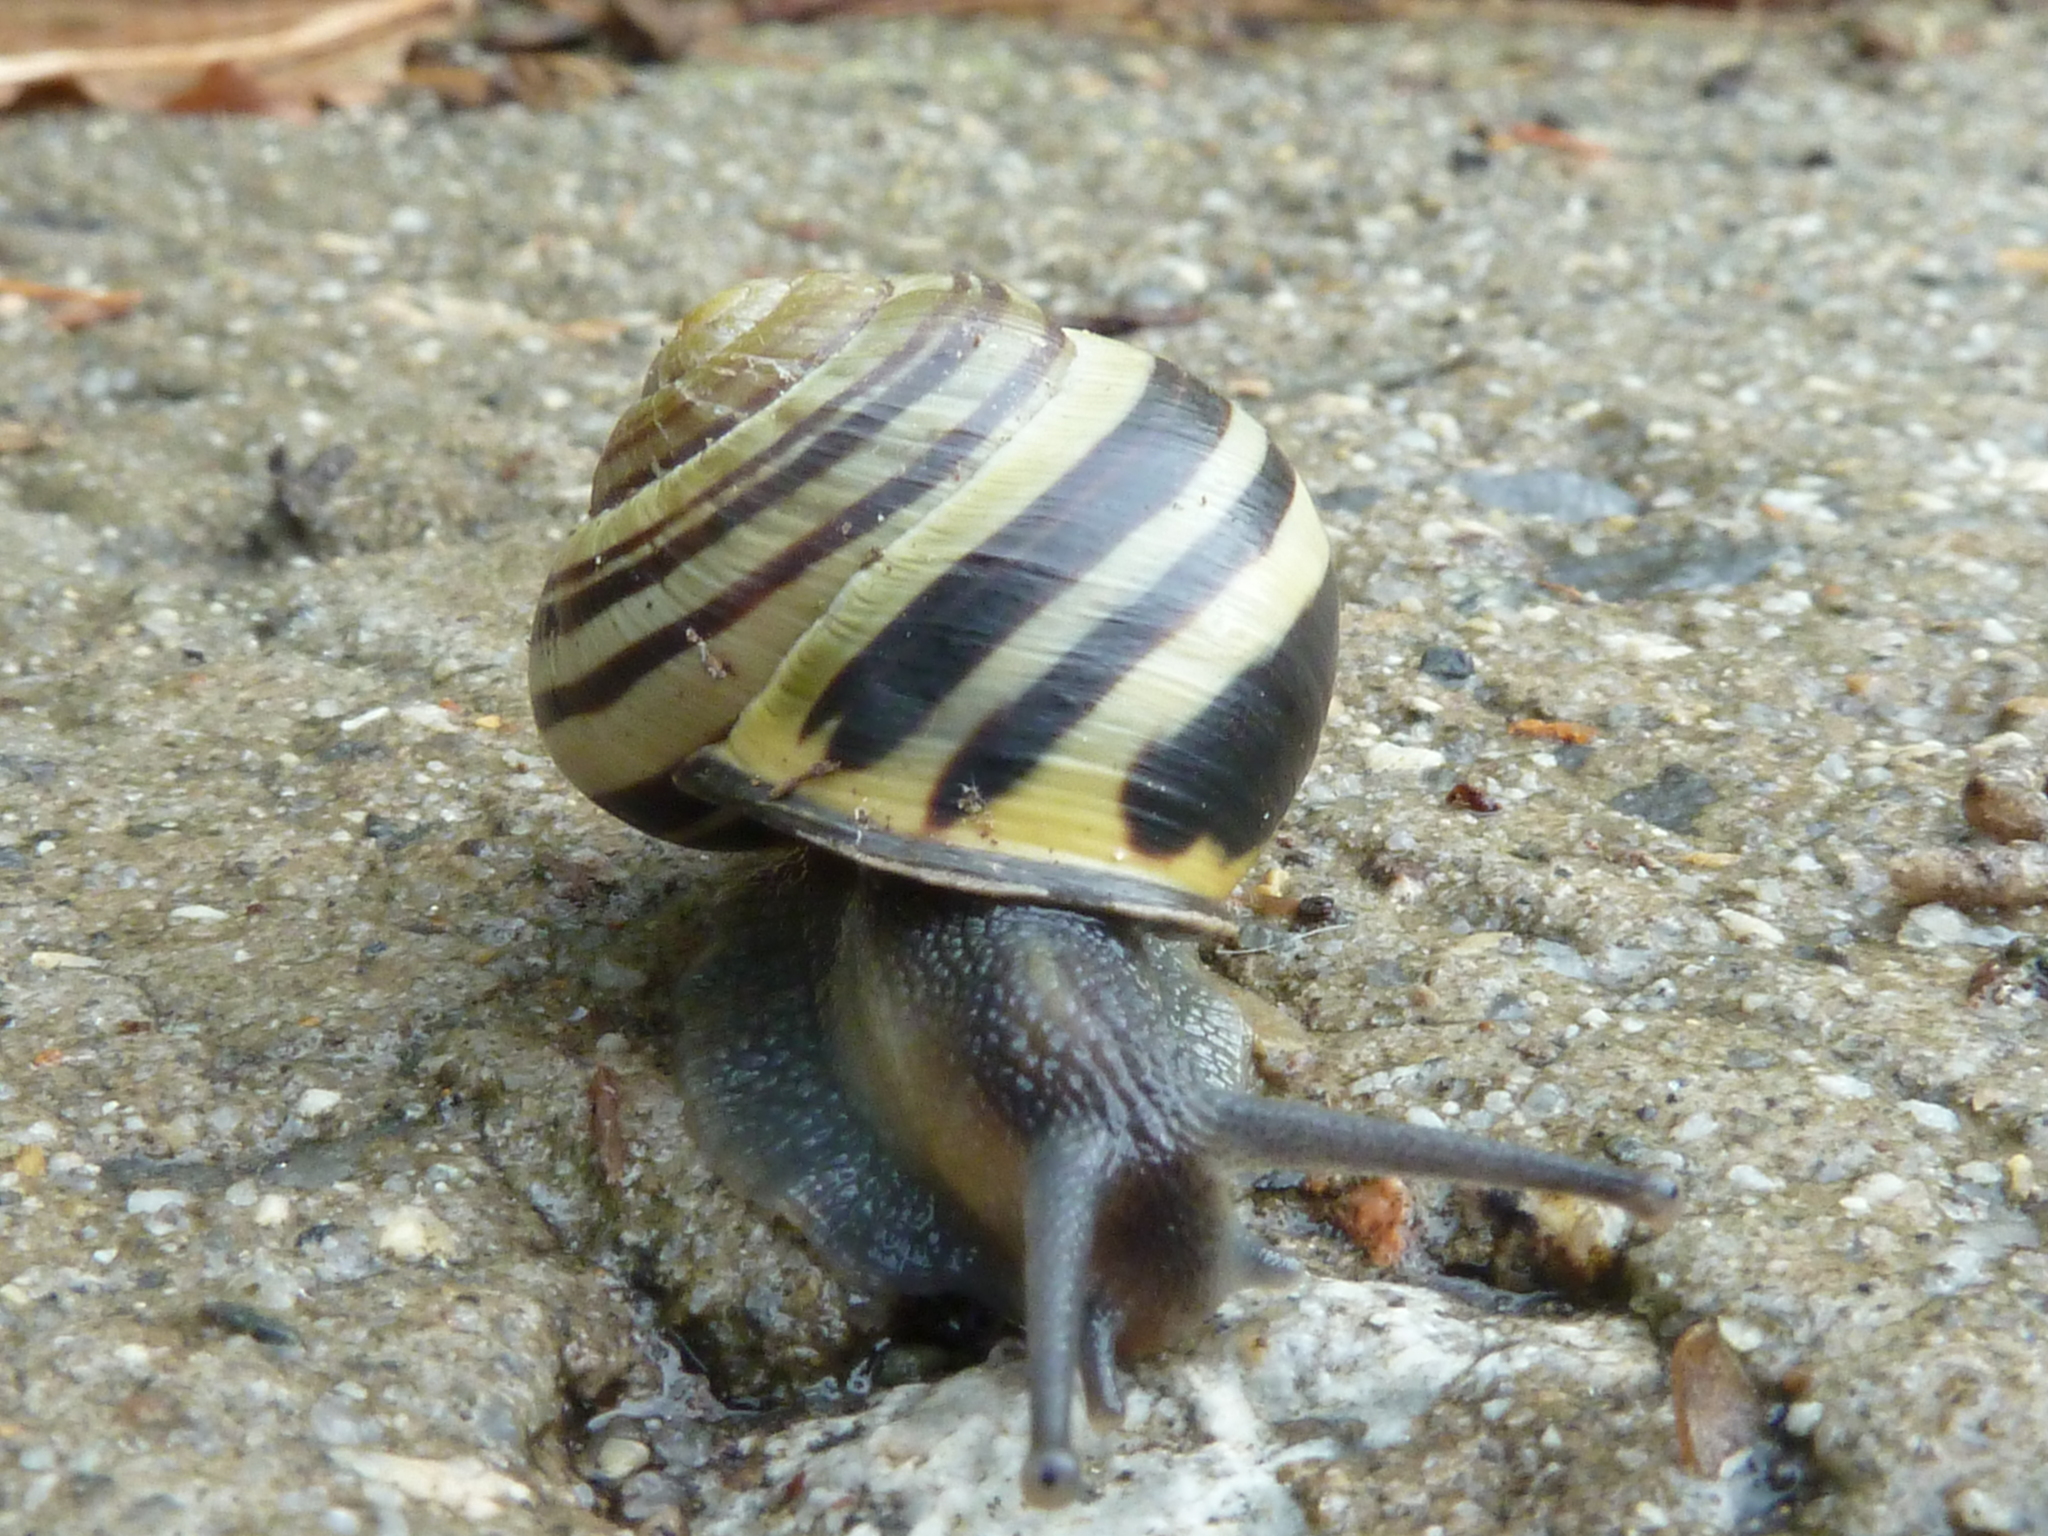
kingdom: Animalia
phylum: Mollusca
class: Gastropoda
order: Stylommatophora
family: Helicidae
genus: Cepaea
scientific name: Cepaea nemoralis
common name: Grovesnail
